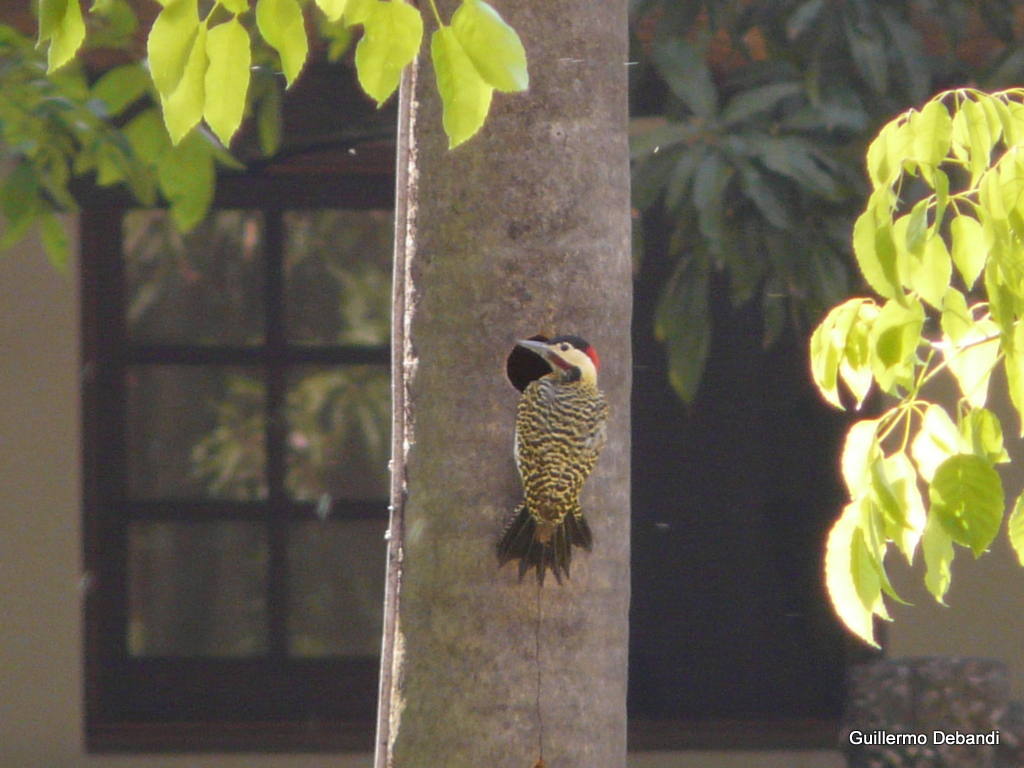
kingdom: Animalia
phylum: Chordata
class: Aves
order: Piciformes
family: Picidae
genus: Colaptes
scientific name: Colaptes melanochloros
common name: Green-barred woodpecker
